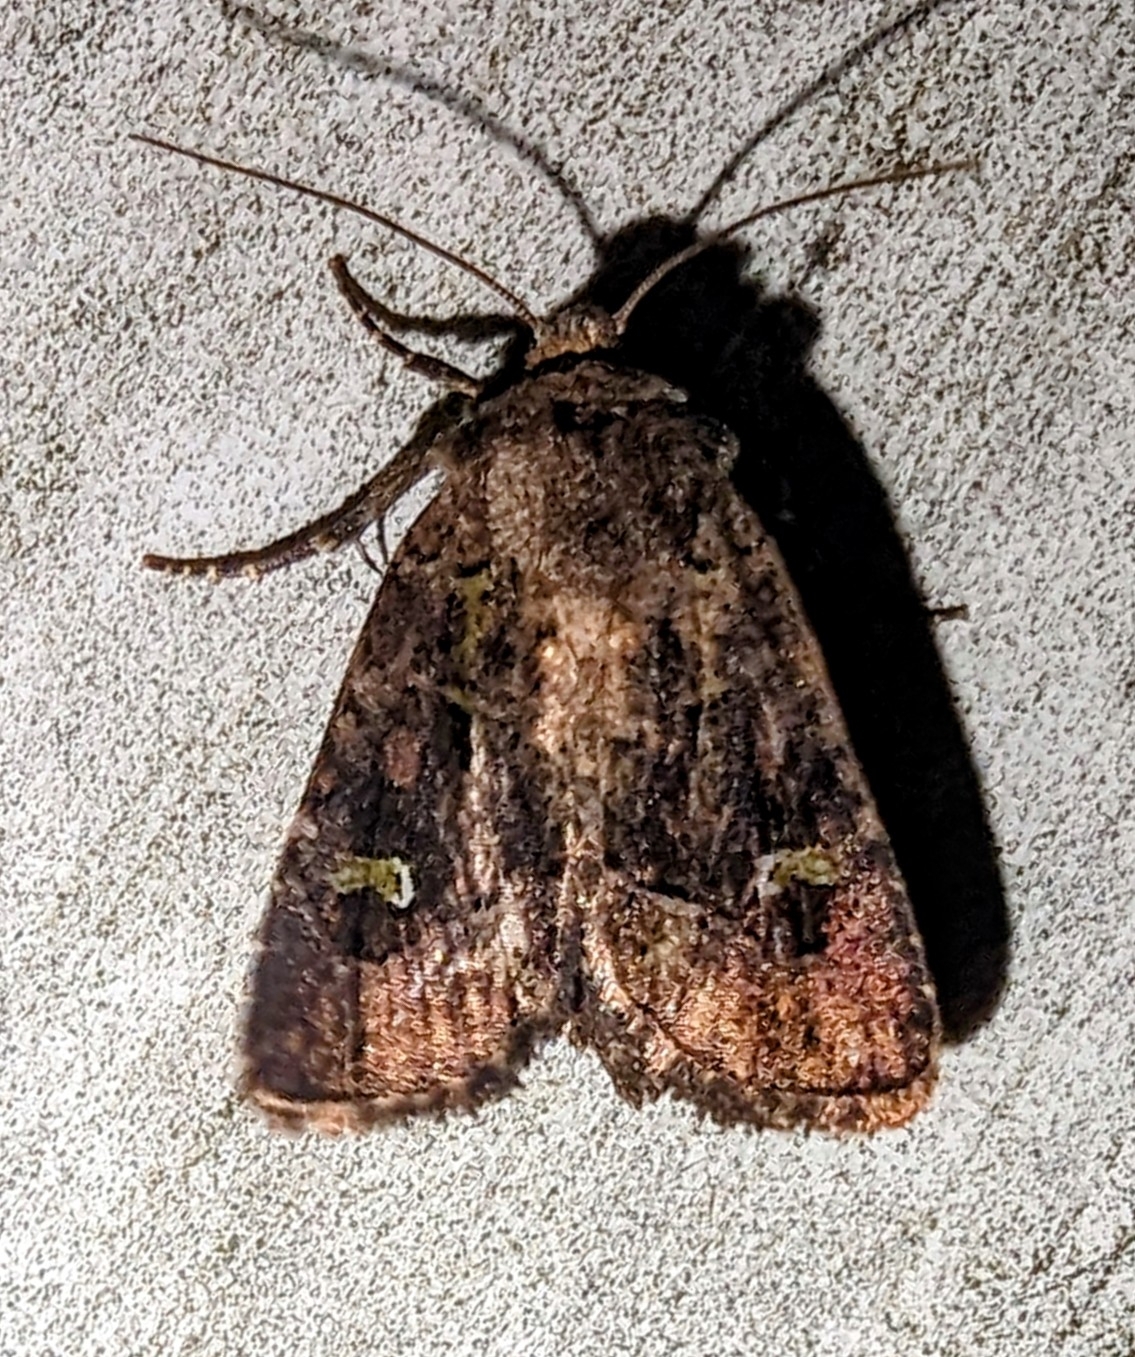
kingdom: Animalia
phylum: Arthropoda
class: Insecta
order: Lepidoptera
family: Noctuidae
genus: Lacinipolia
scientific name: Lacinipolia renigera
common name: Kidney-spotted minor
